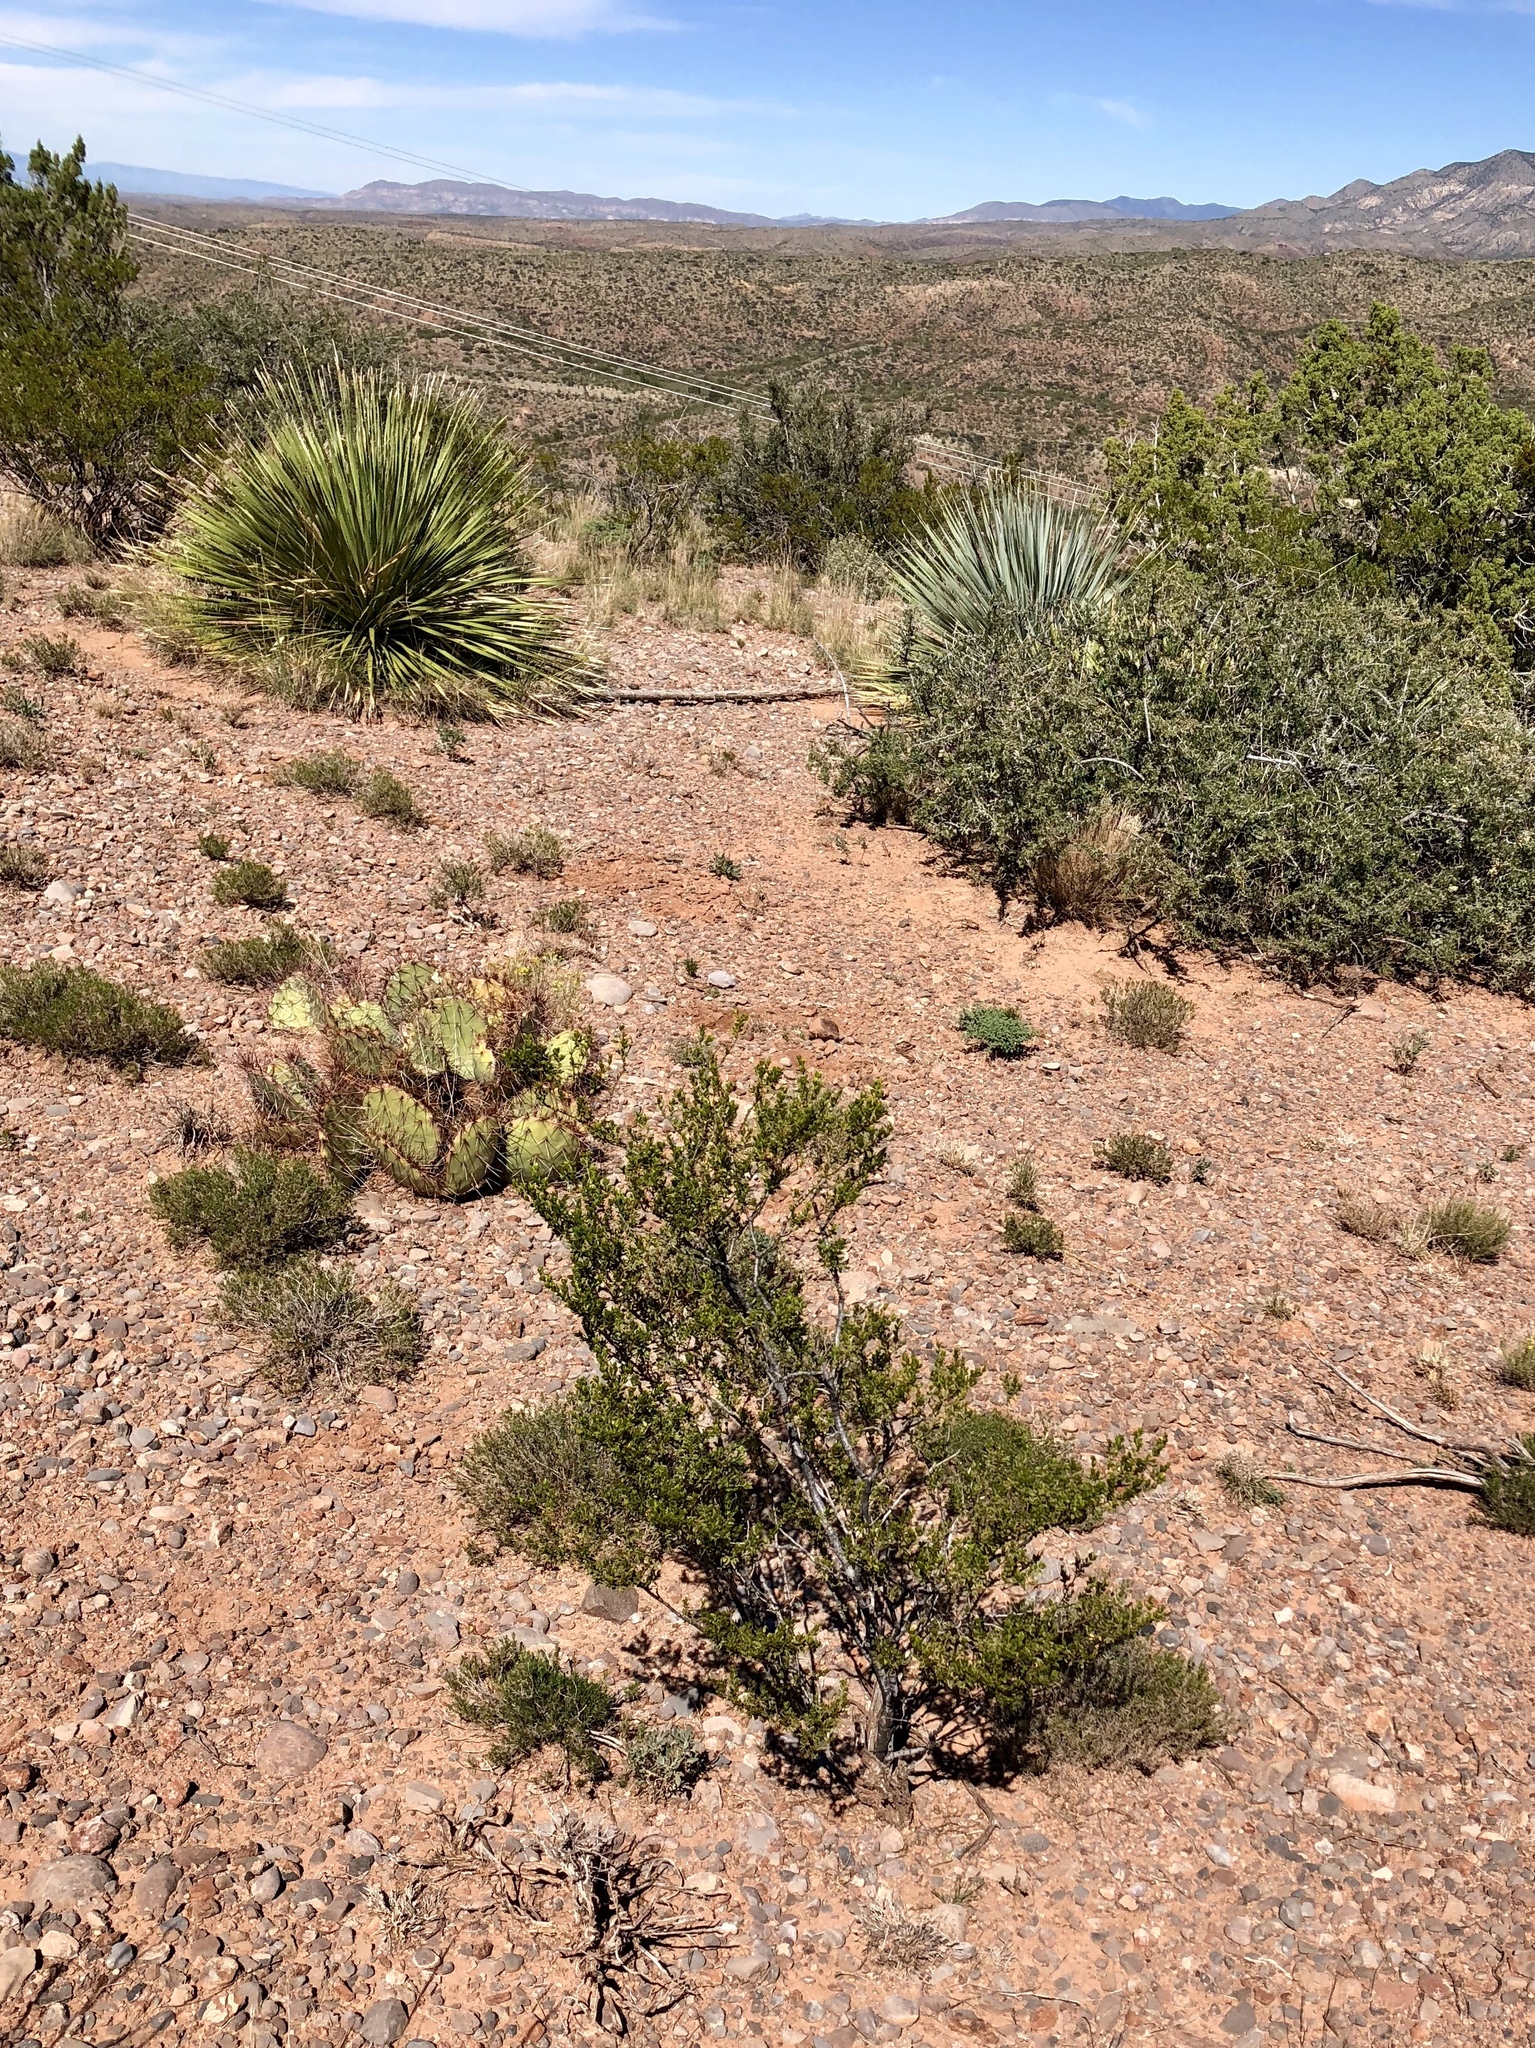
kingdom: Plantae
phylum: Tracheophyta
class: Magnoliopsida
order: Zygophyllales
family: Zygophyllaceae
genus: Larrea
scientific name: Larrea tridentata
